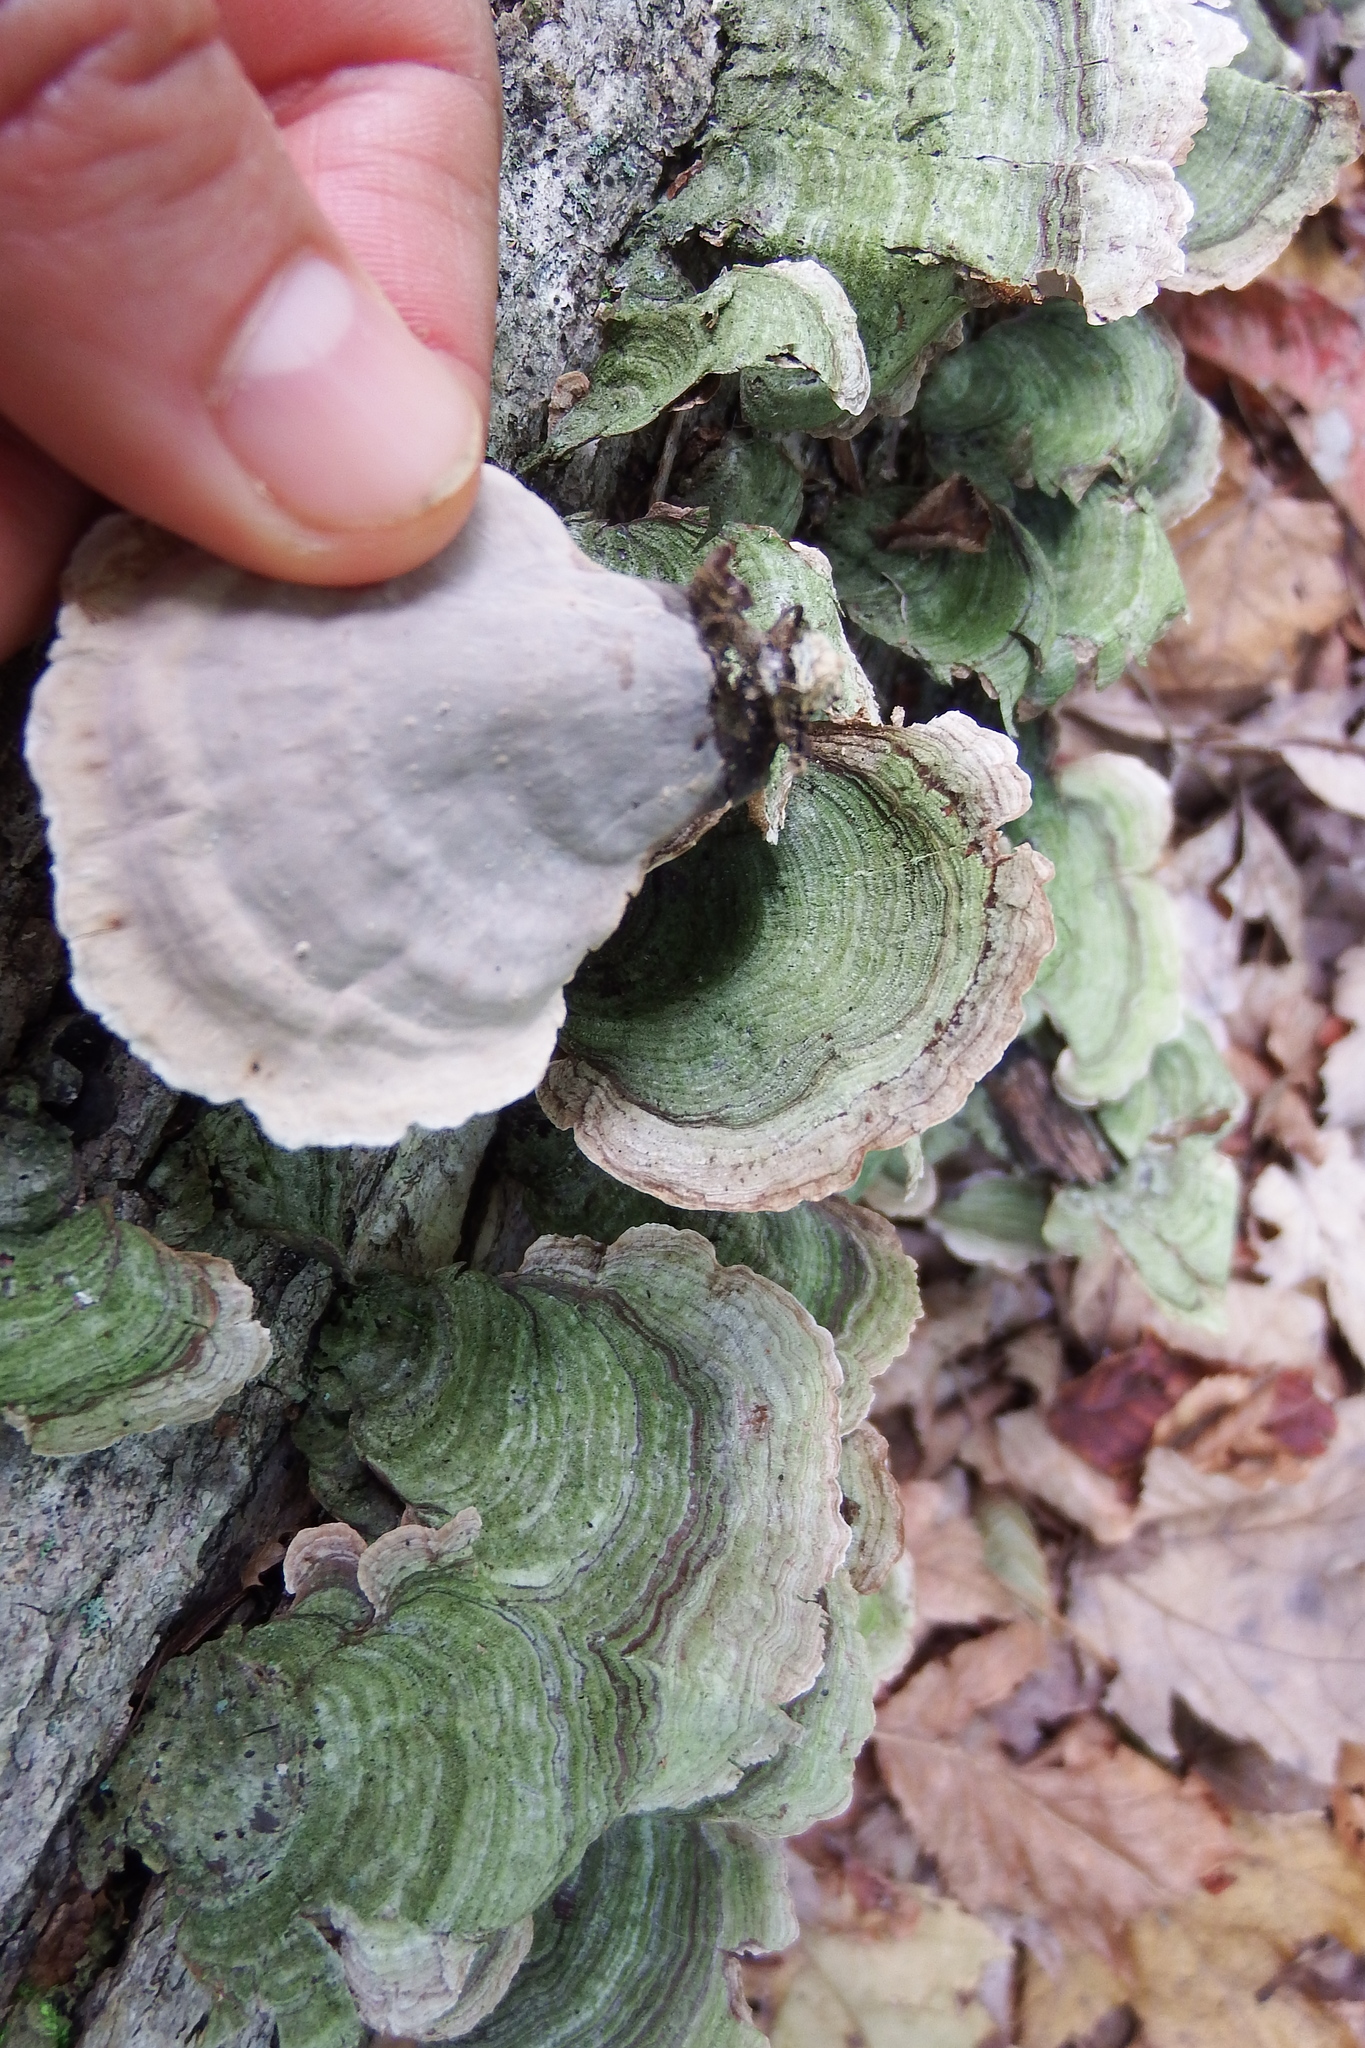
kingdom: Fungi
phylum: Basidiomycota
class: Agaricomycetes
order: Russulales
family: Stereaceae
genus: Stereum
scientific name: Stereum ostrea
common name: False turkeytail
